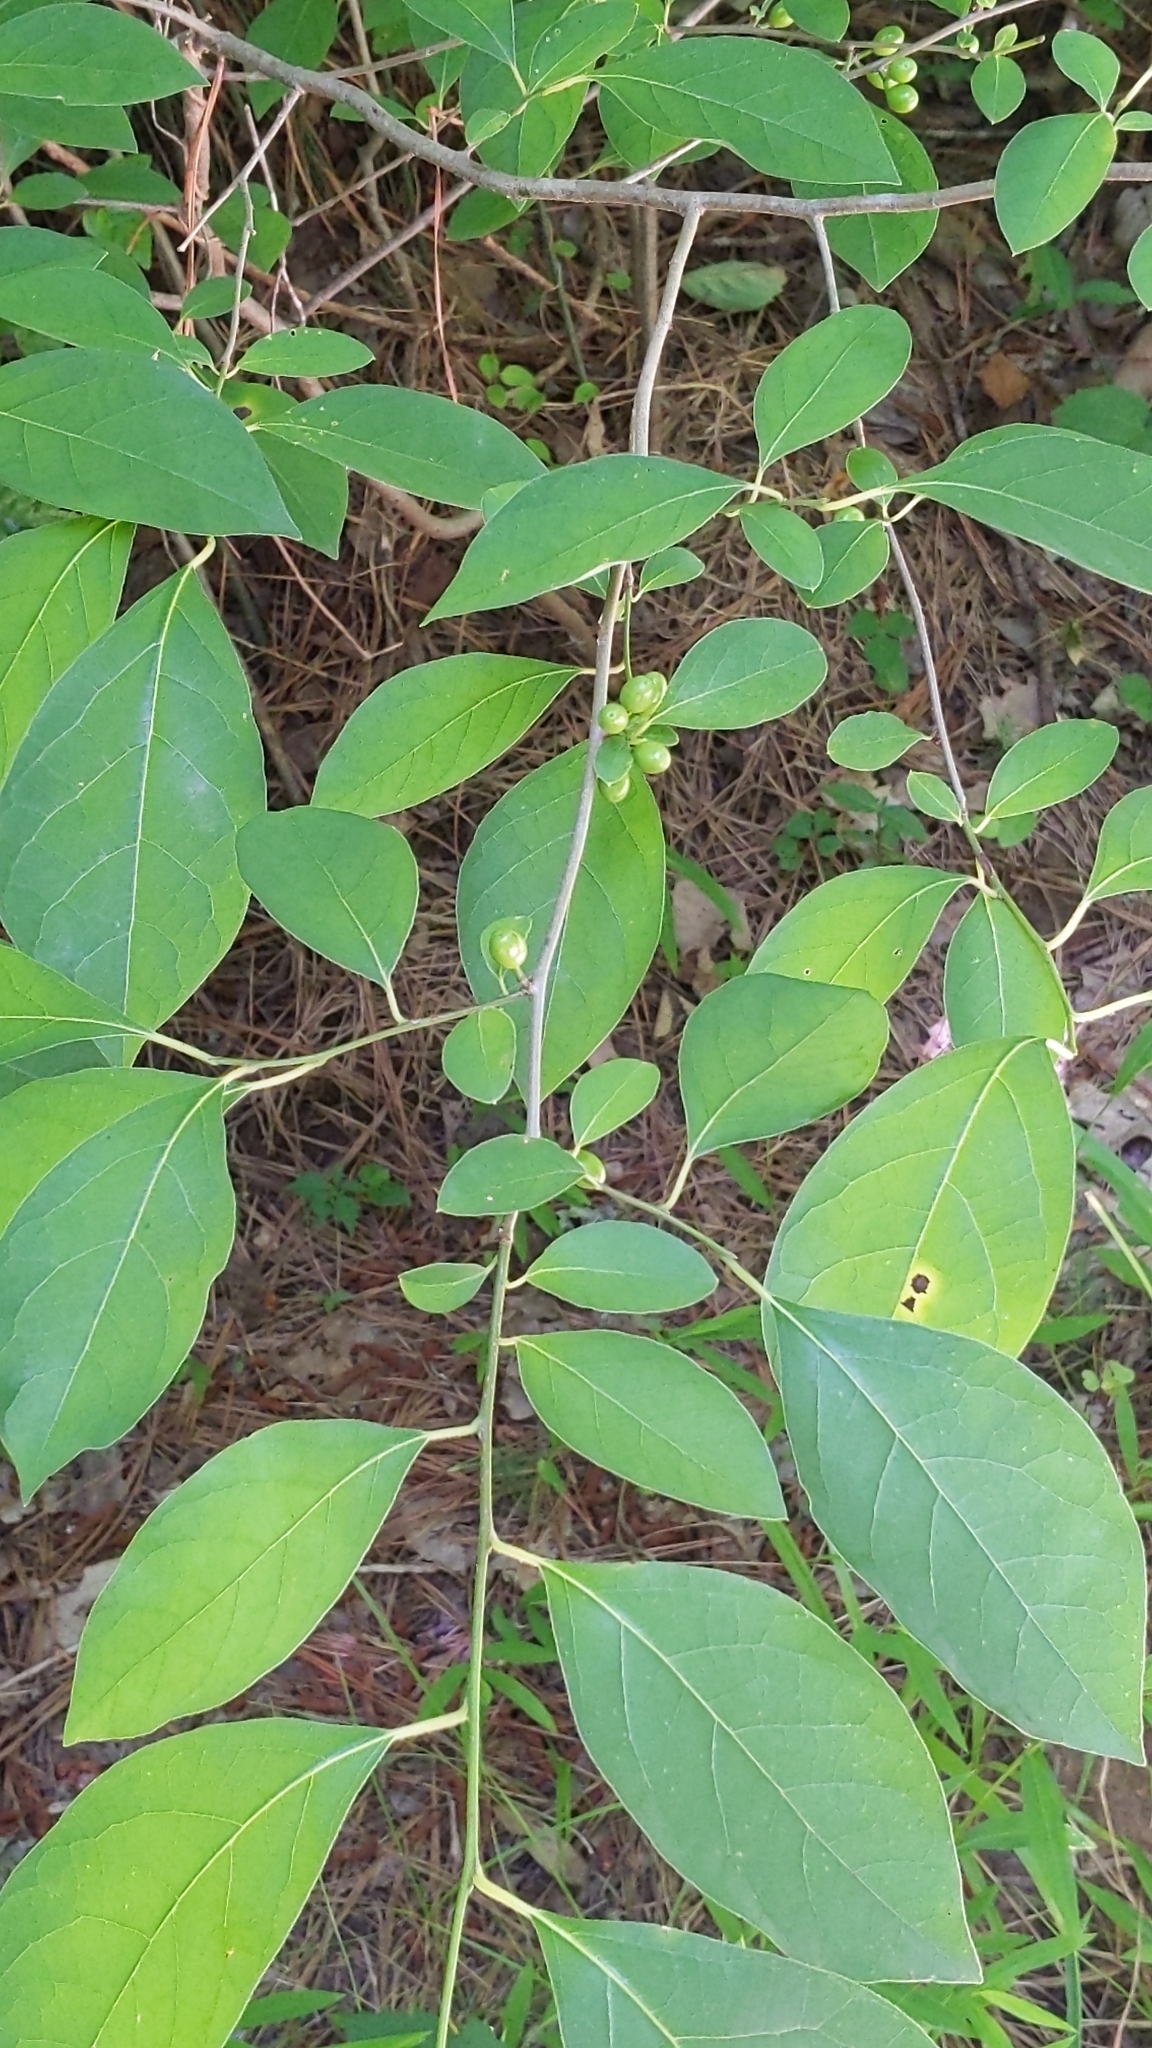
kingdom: Plantae
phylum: Tracheophyta
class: Magnoliopsida
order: Laurales
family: Lauraceae
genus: Lindera
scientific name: Lindera benzoin
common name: Spicebush
